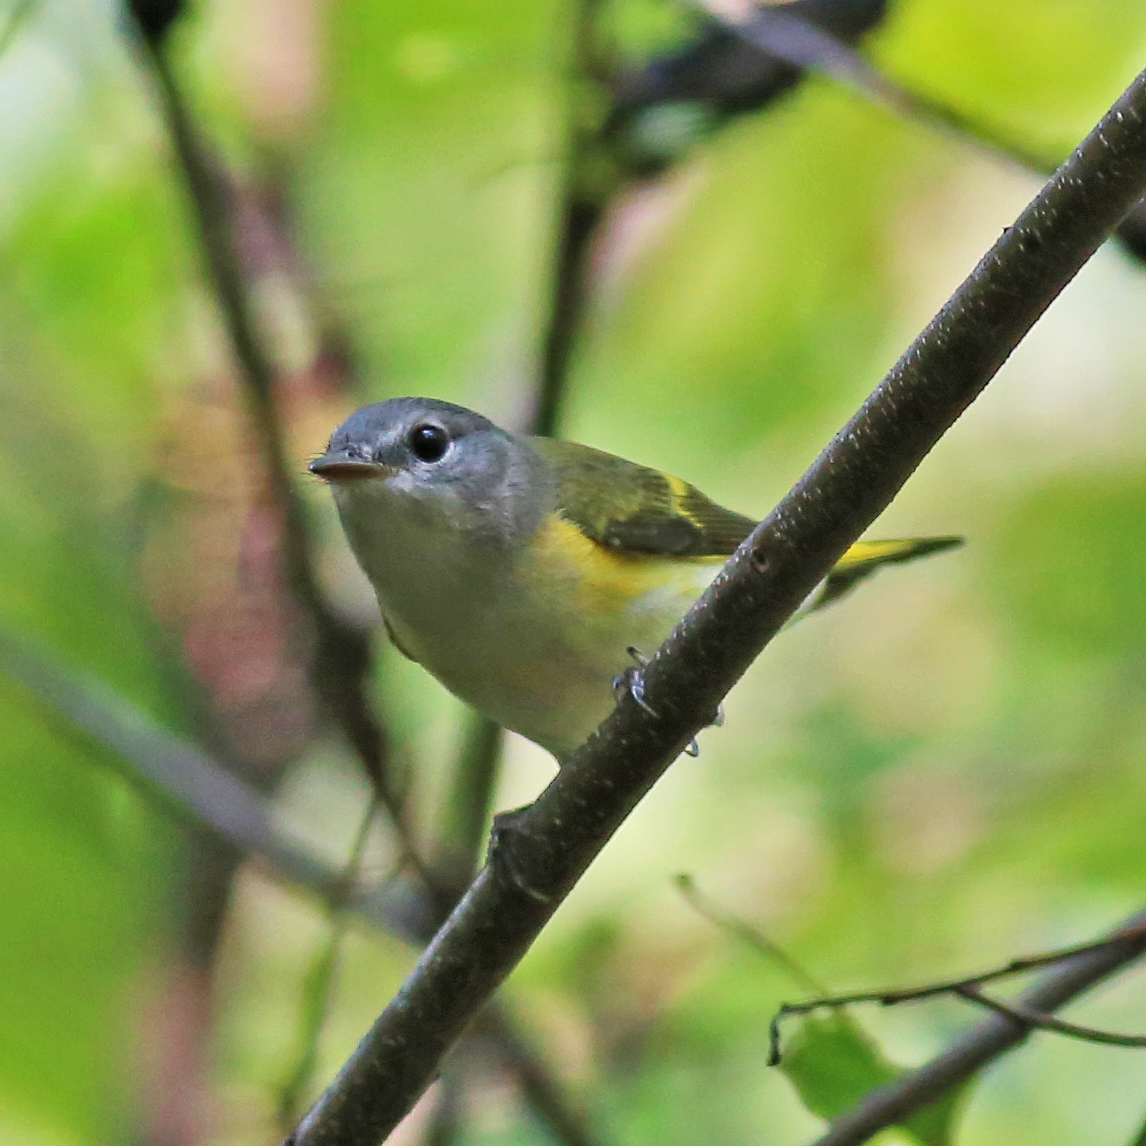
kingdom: Animalia
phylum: Chordata
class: Aves
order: Passeriformes
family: Parulidae
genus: Setophaga
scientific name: Setophaga ruticilla
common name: American redstart
